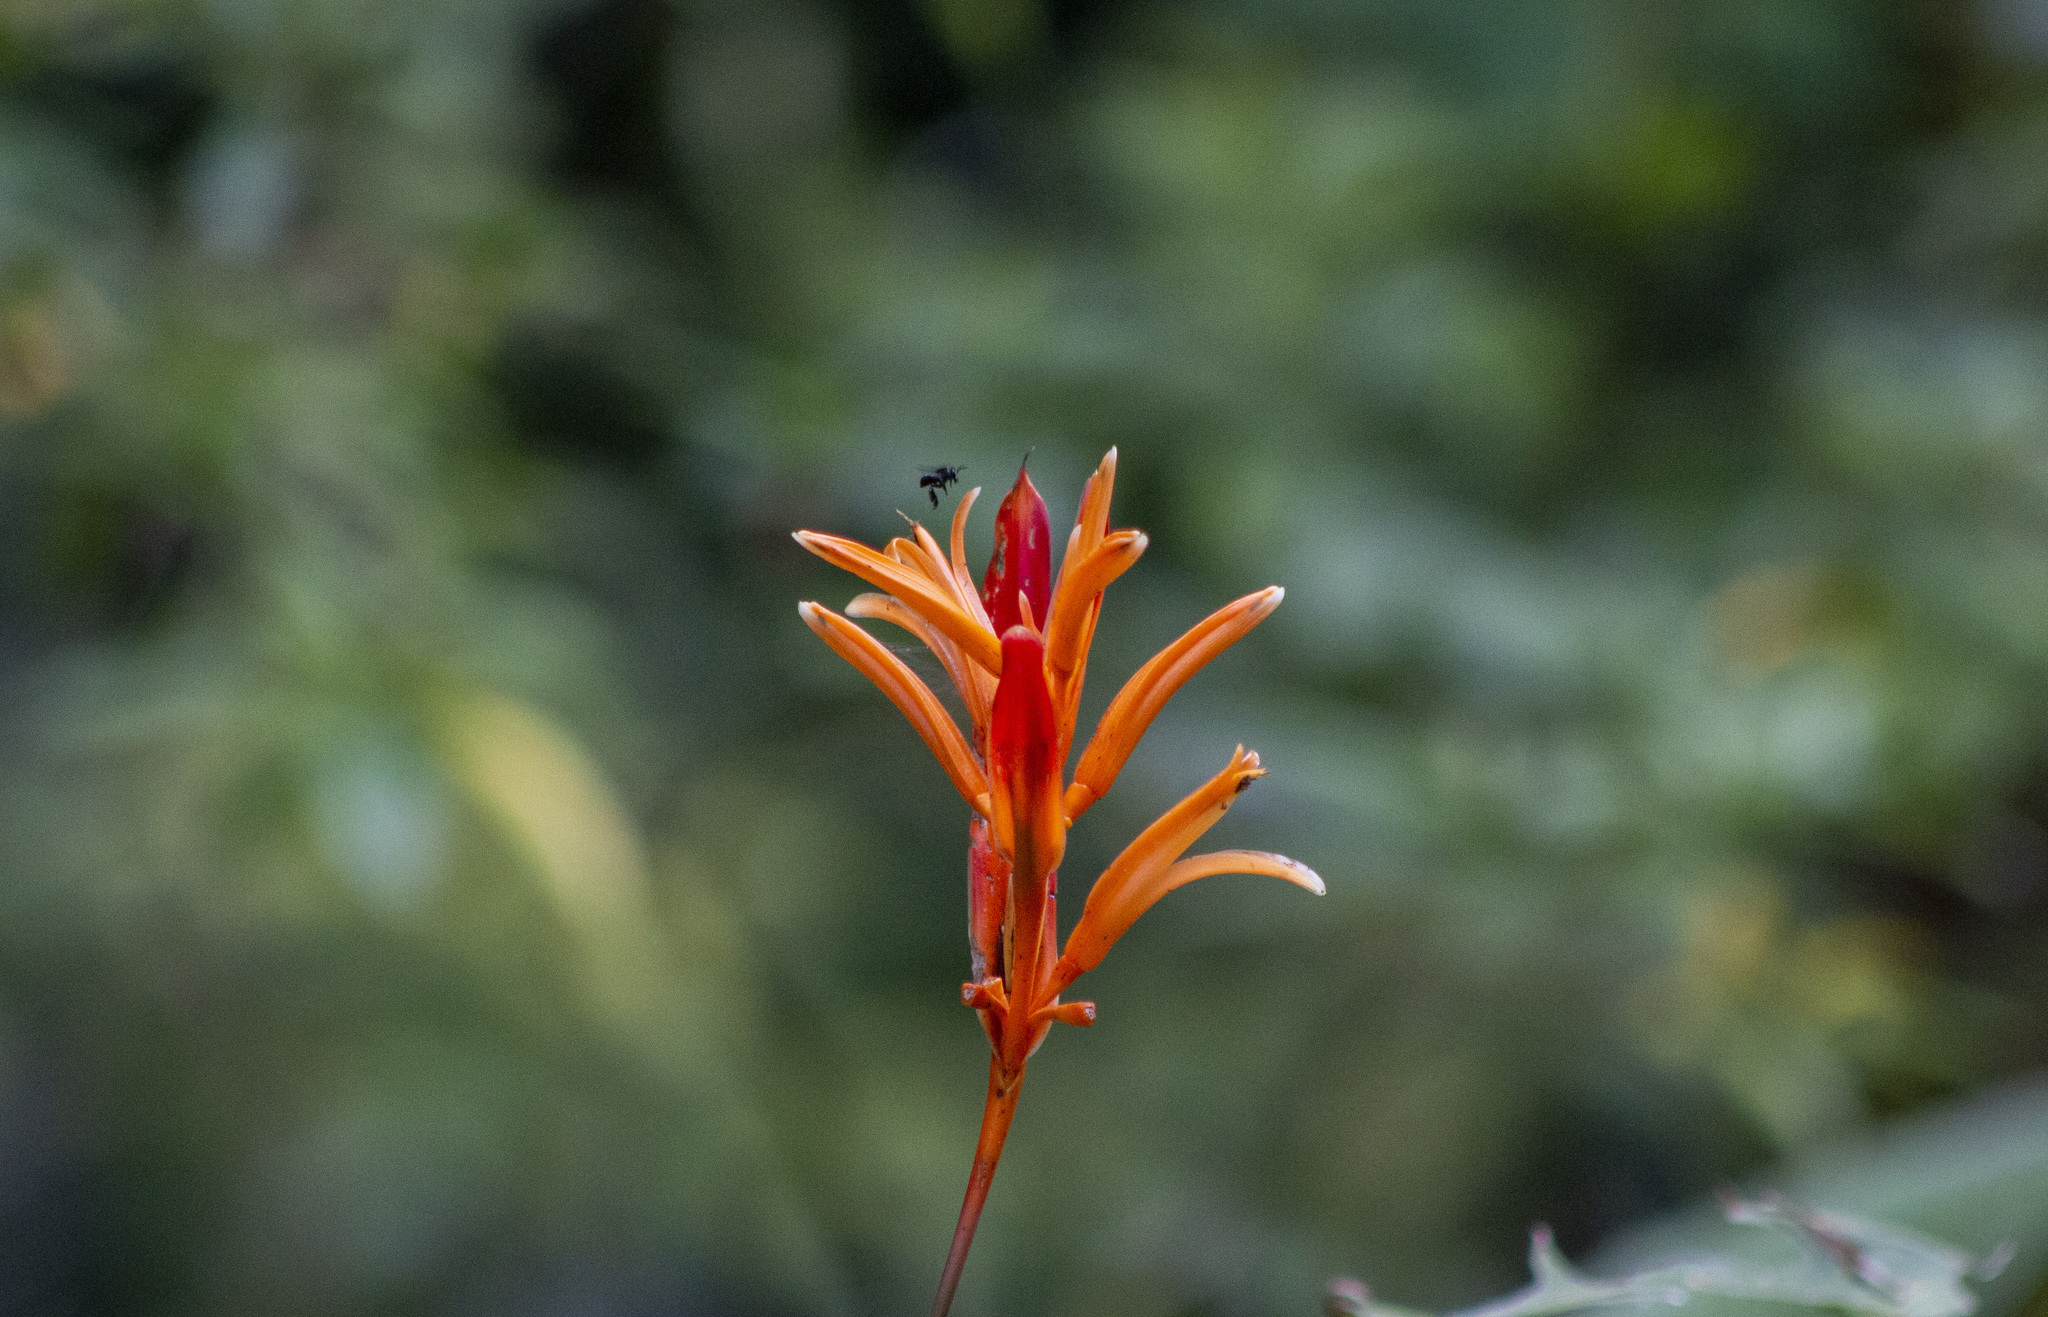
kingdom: Plantae
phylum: Tracheophyta
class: Liliopsida
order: Zingiberales
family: Heliconiaceae
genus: Heliconia
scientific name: Heliconia psittacorum
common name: Parrot's-flower
